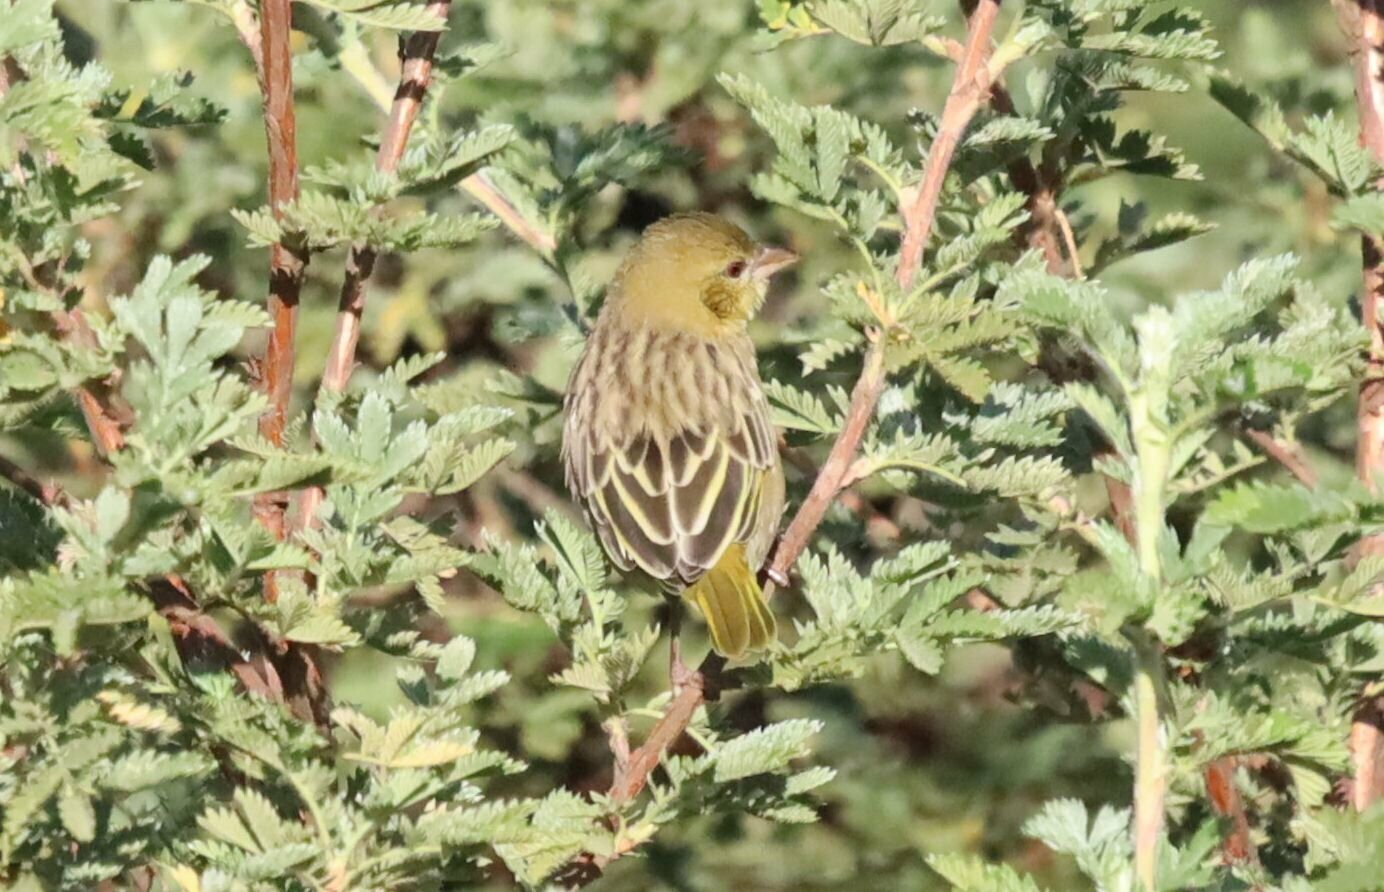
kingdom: Animalia
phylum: Chordata
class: Aves
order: Passeriformes
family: Ploceidae
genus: Ploceus
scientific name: Ploceus velatus
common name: Southern masked weaver
